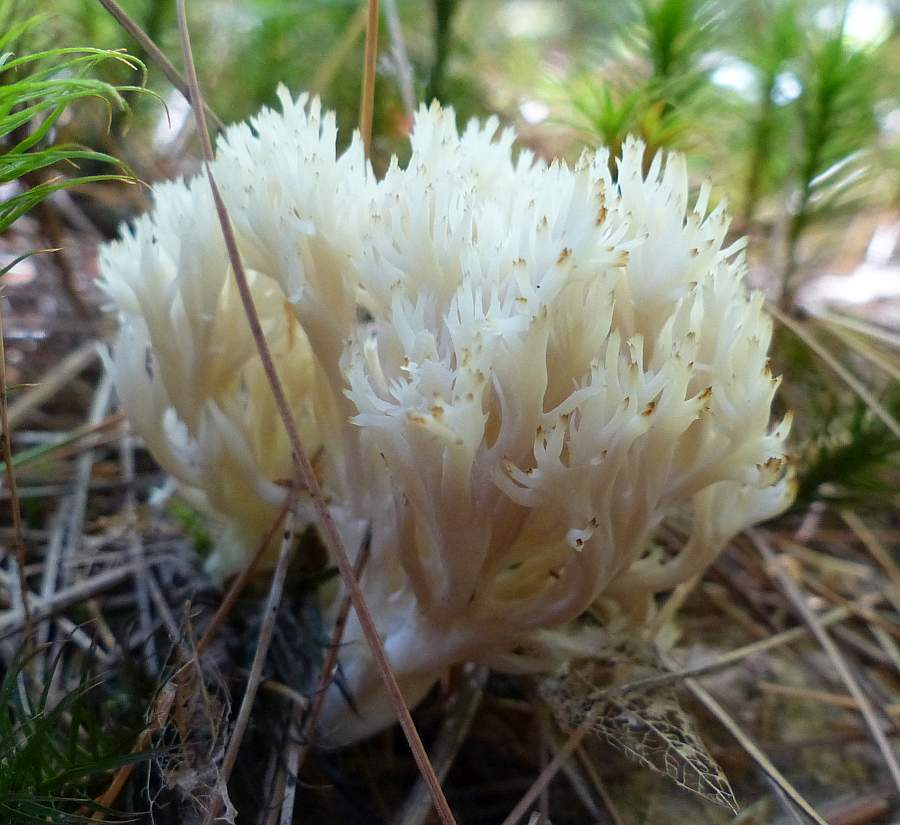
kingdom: Fungi
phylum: Basidiomycota
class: Agaricomycetes
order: Cantharellales
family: Hydnaceae
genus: Clavulina
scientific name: Clavulina coralloides
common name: Crested coral
